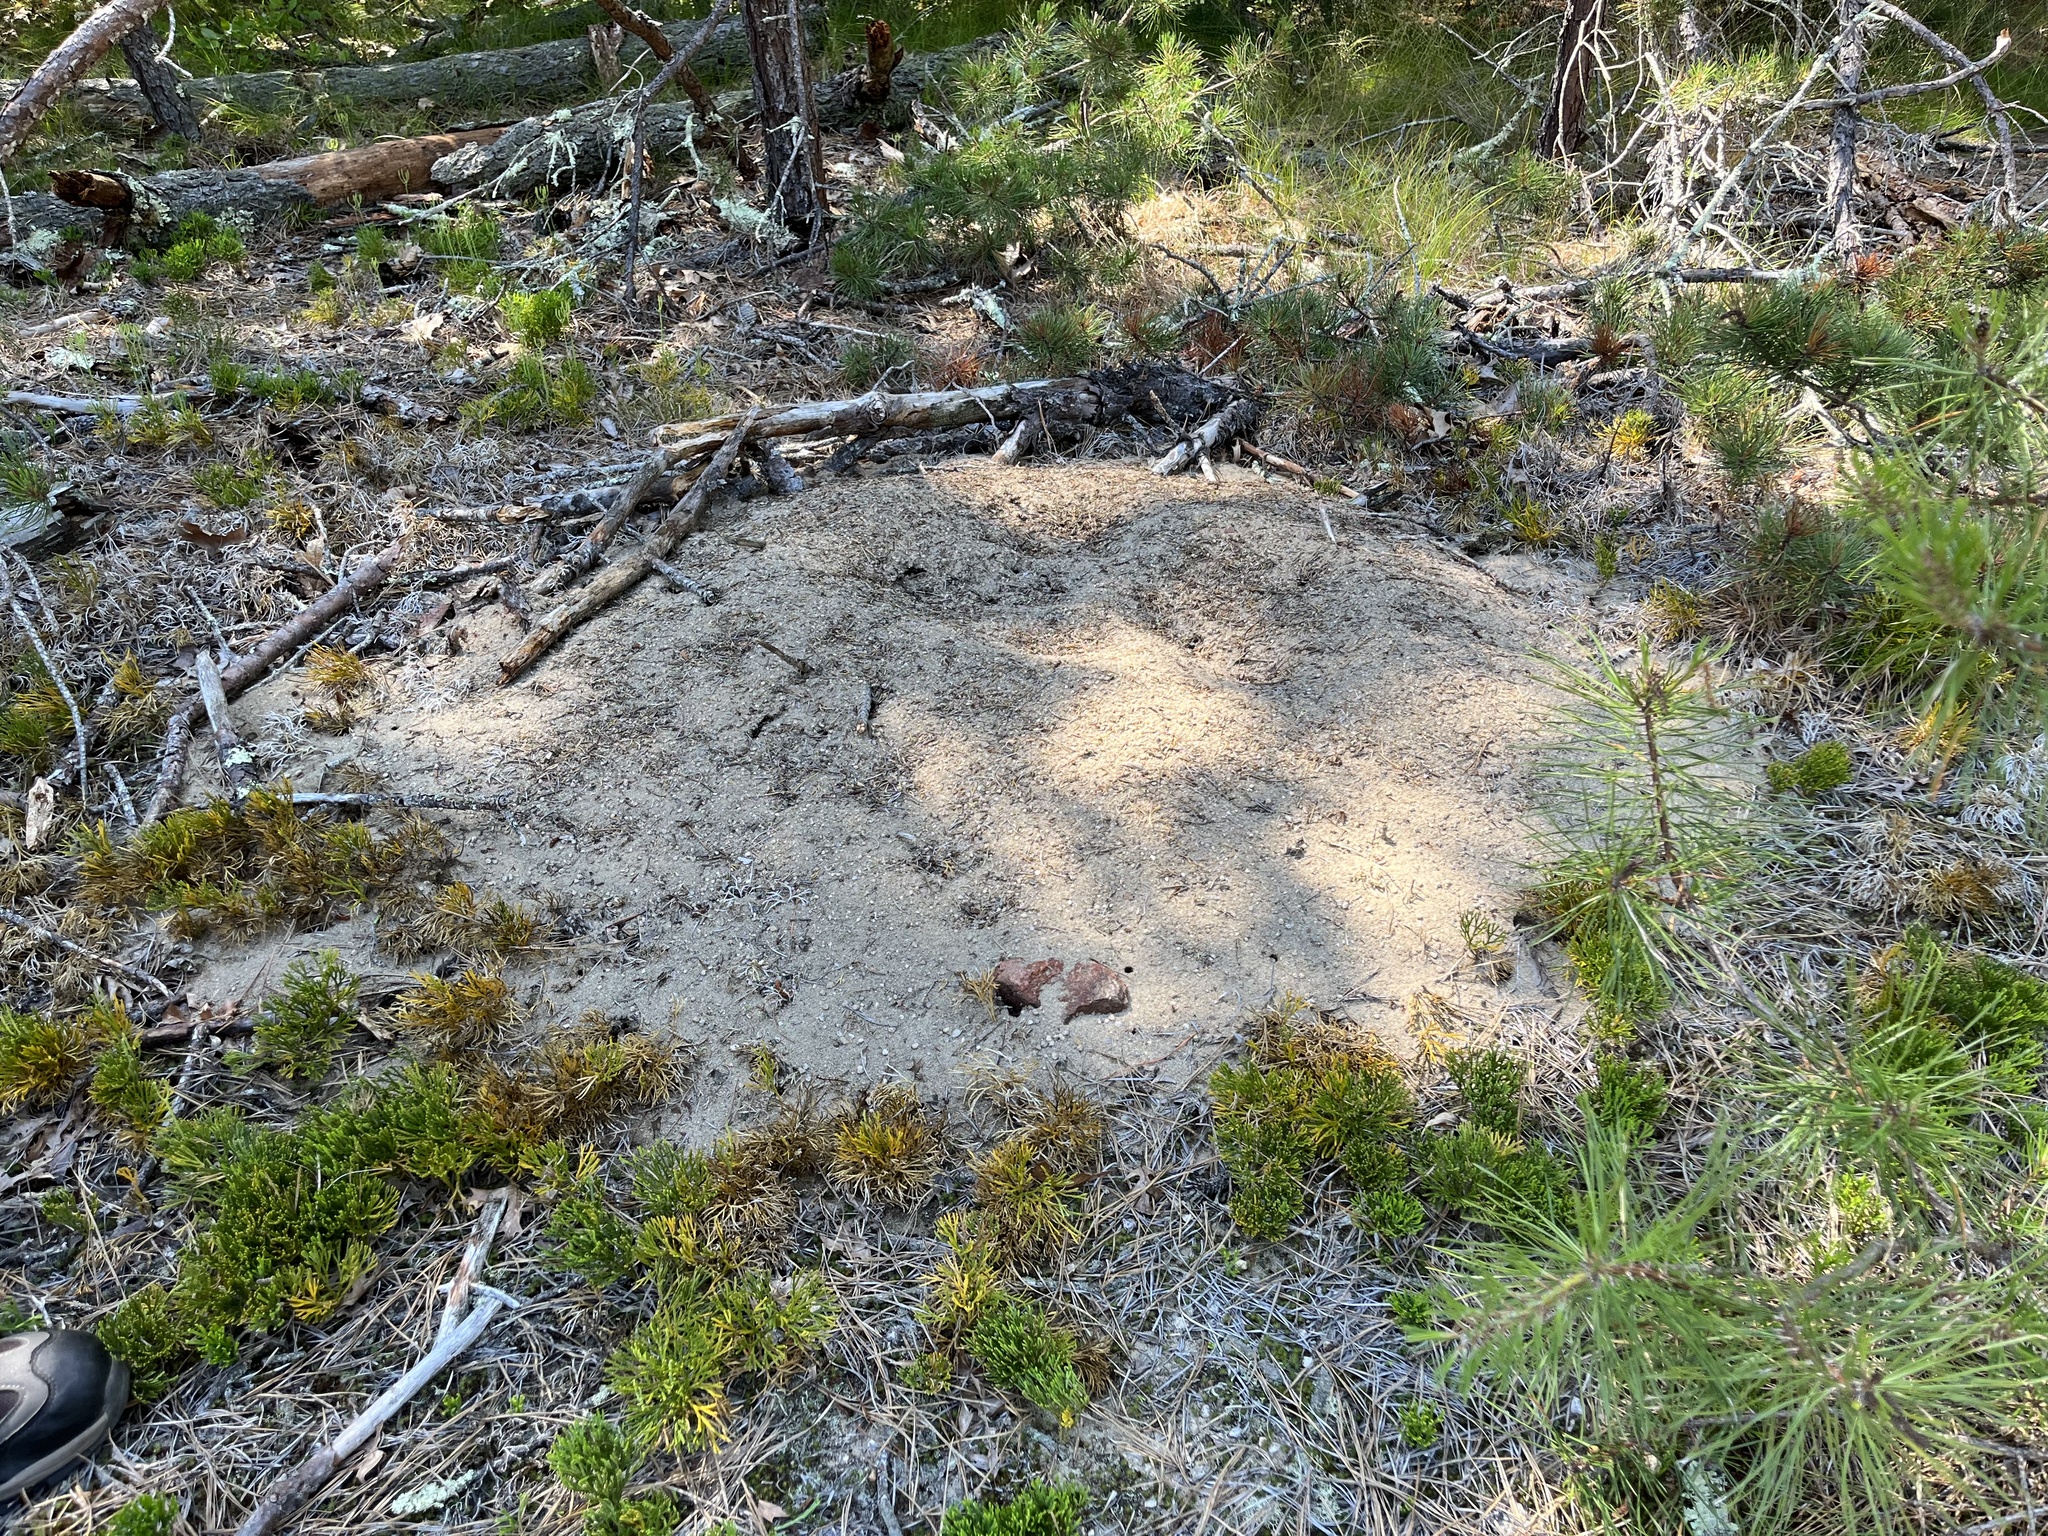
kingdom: Animalia
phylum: Arthropoda
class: Insecta
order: Hymenoptera
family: Formicidae
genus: Formica
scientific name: Formica exsectoides
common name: Allegheny mound ant
